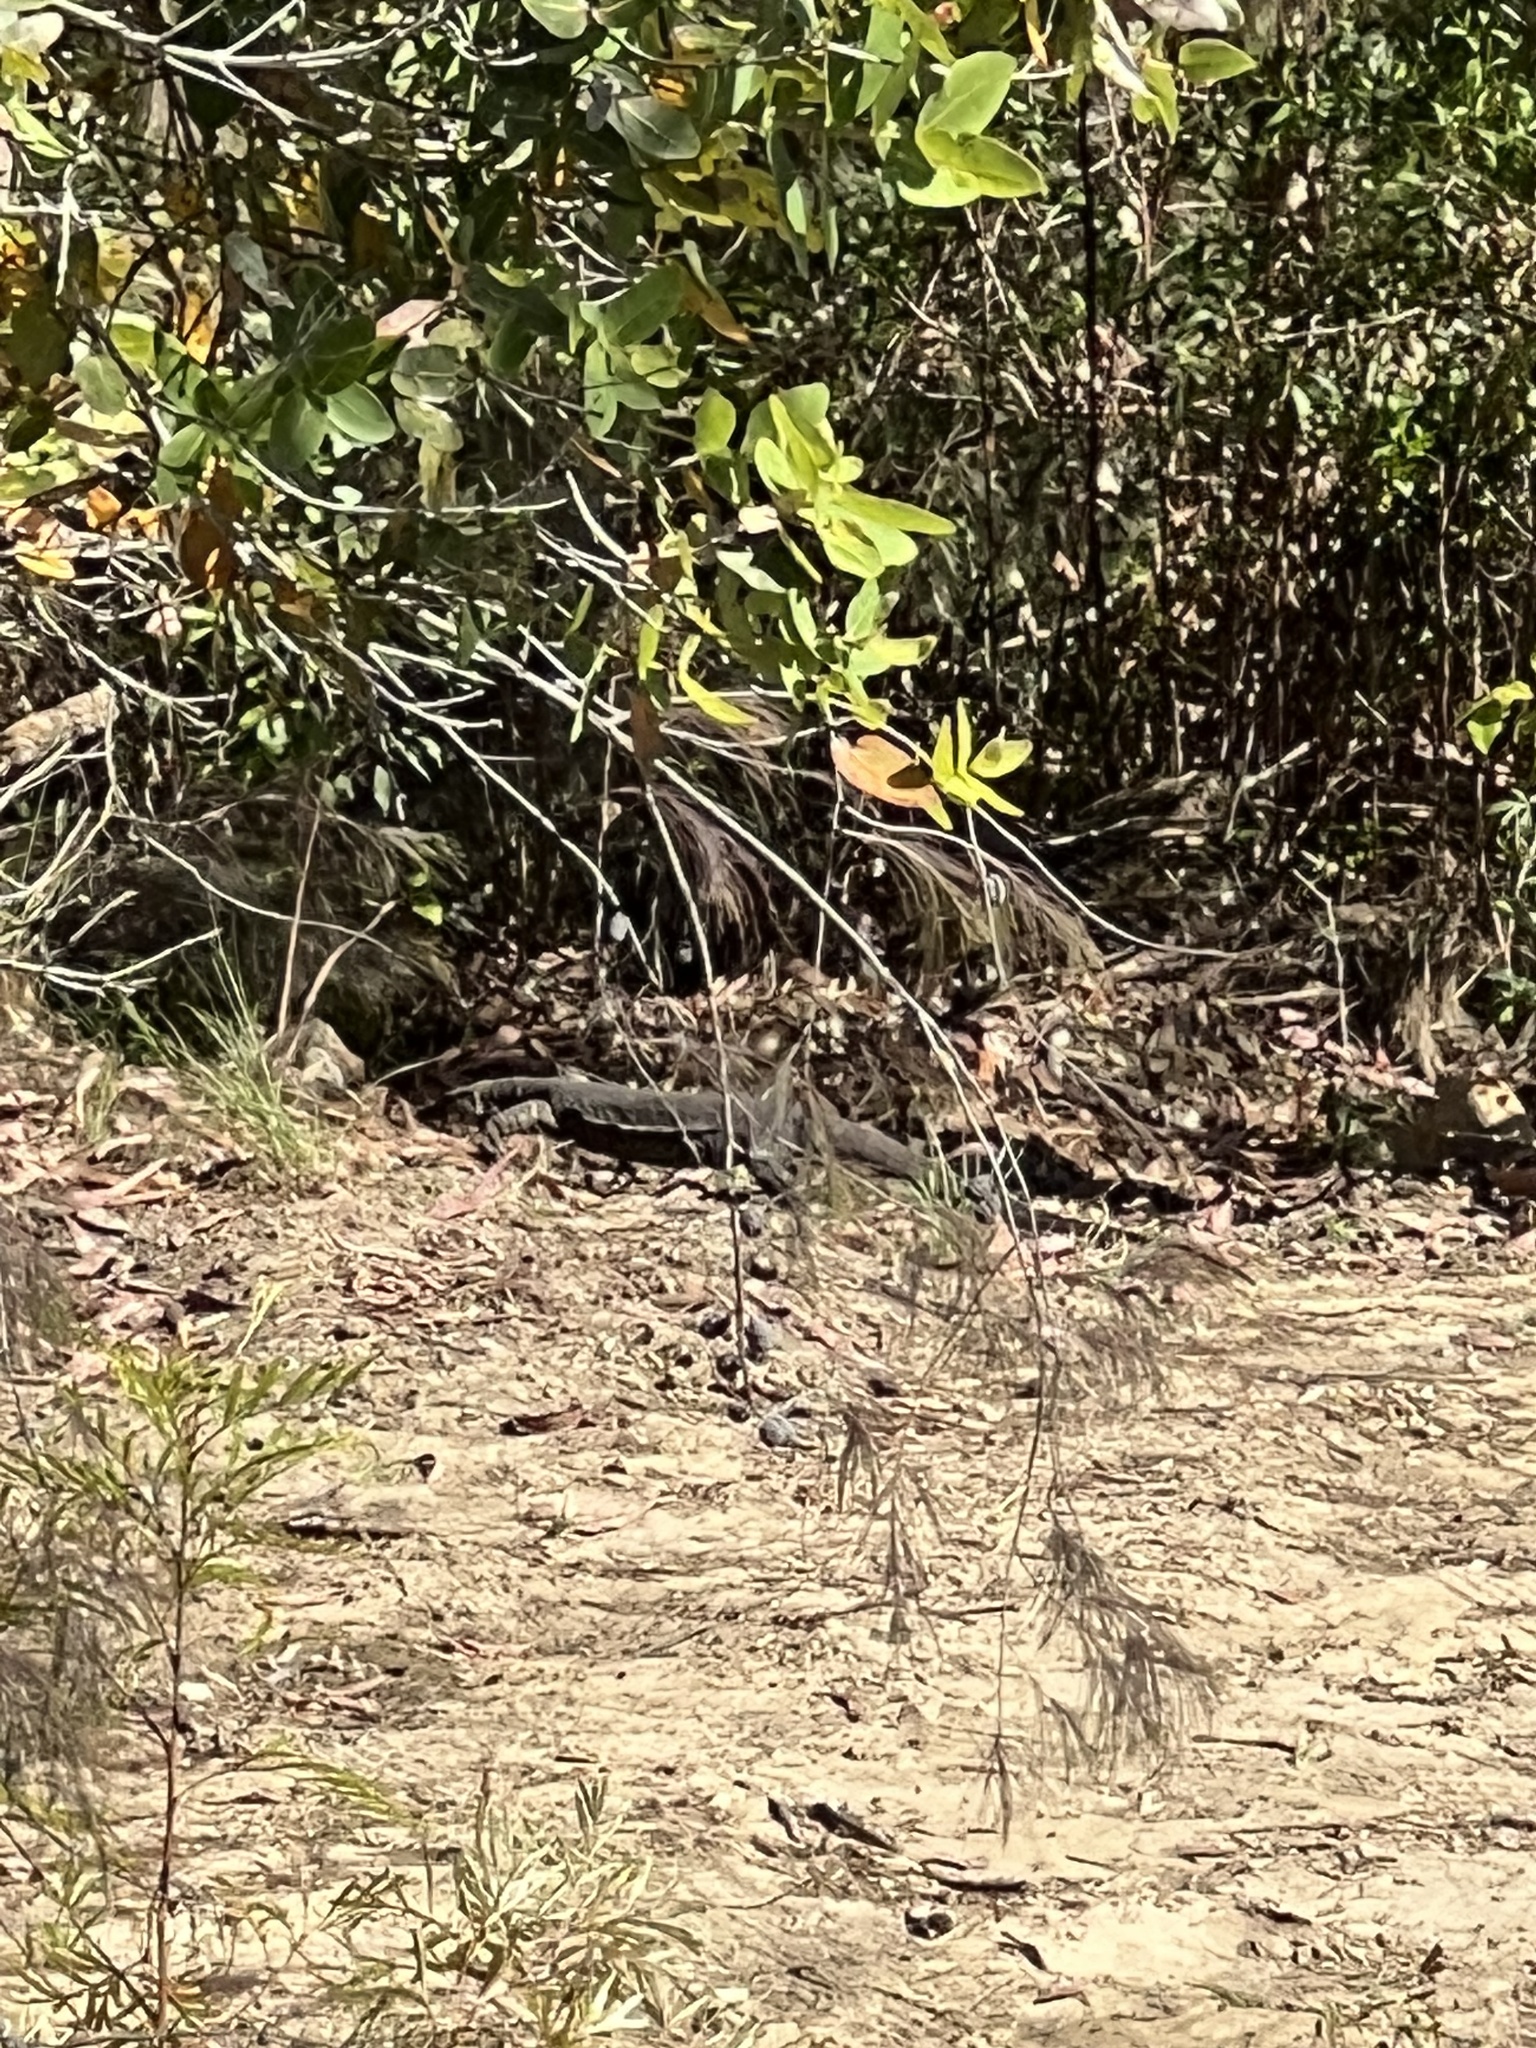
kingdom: Animalia
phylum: Chordata
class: Squamata
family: Varanidae
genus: Varanus
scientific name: Varanus varius
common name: Lace monitor
